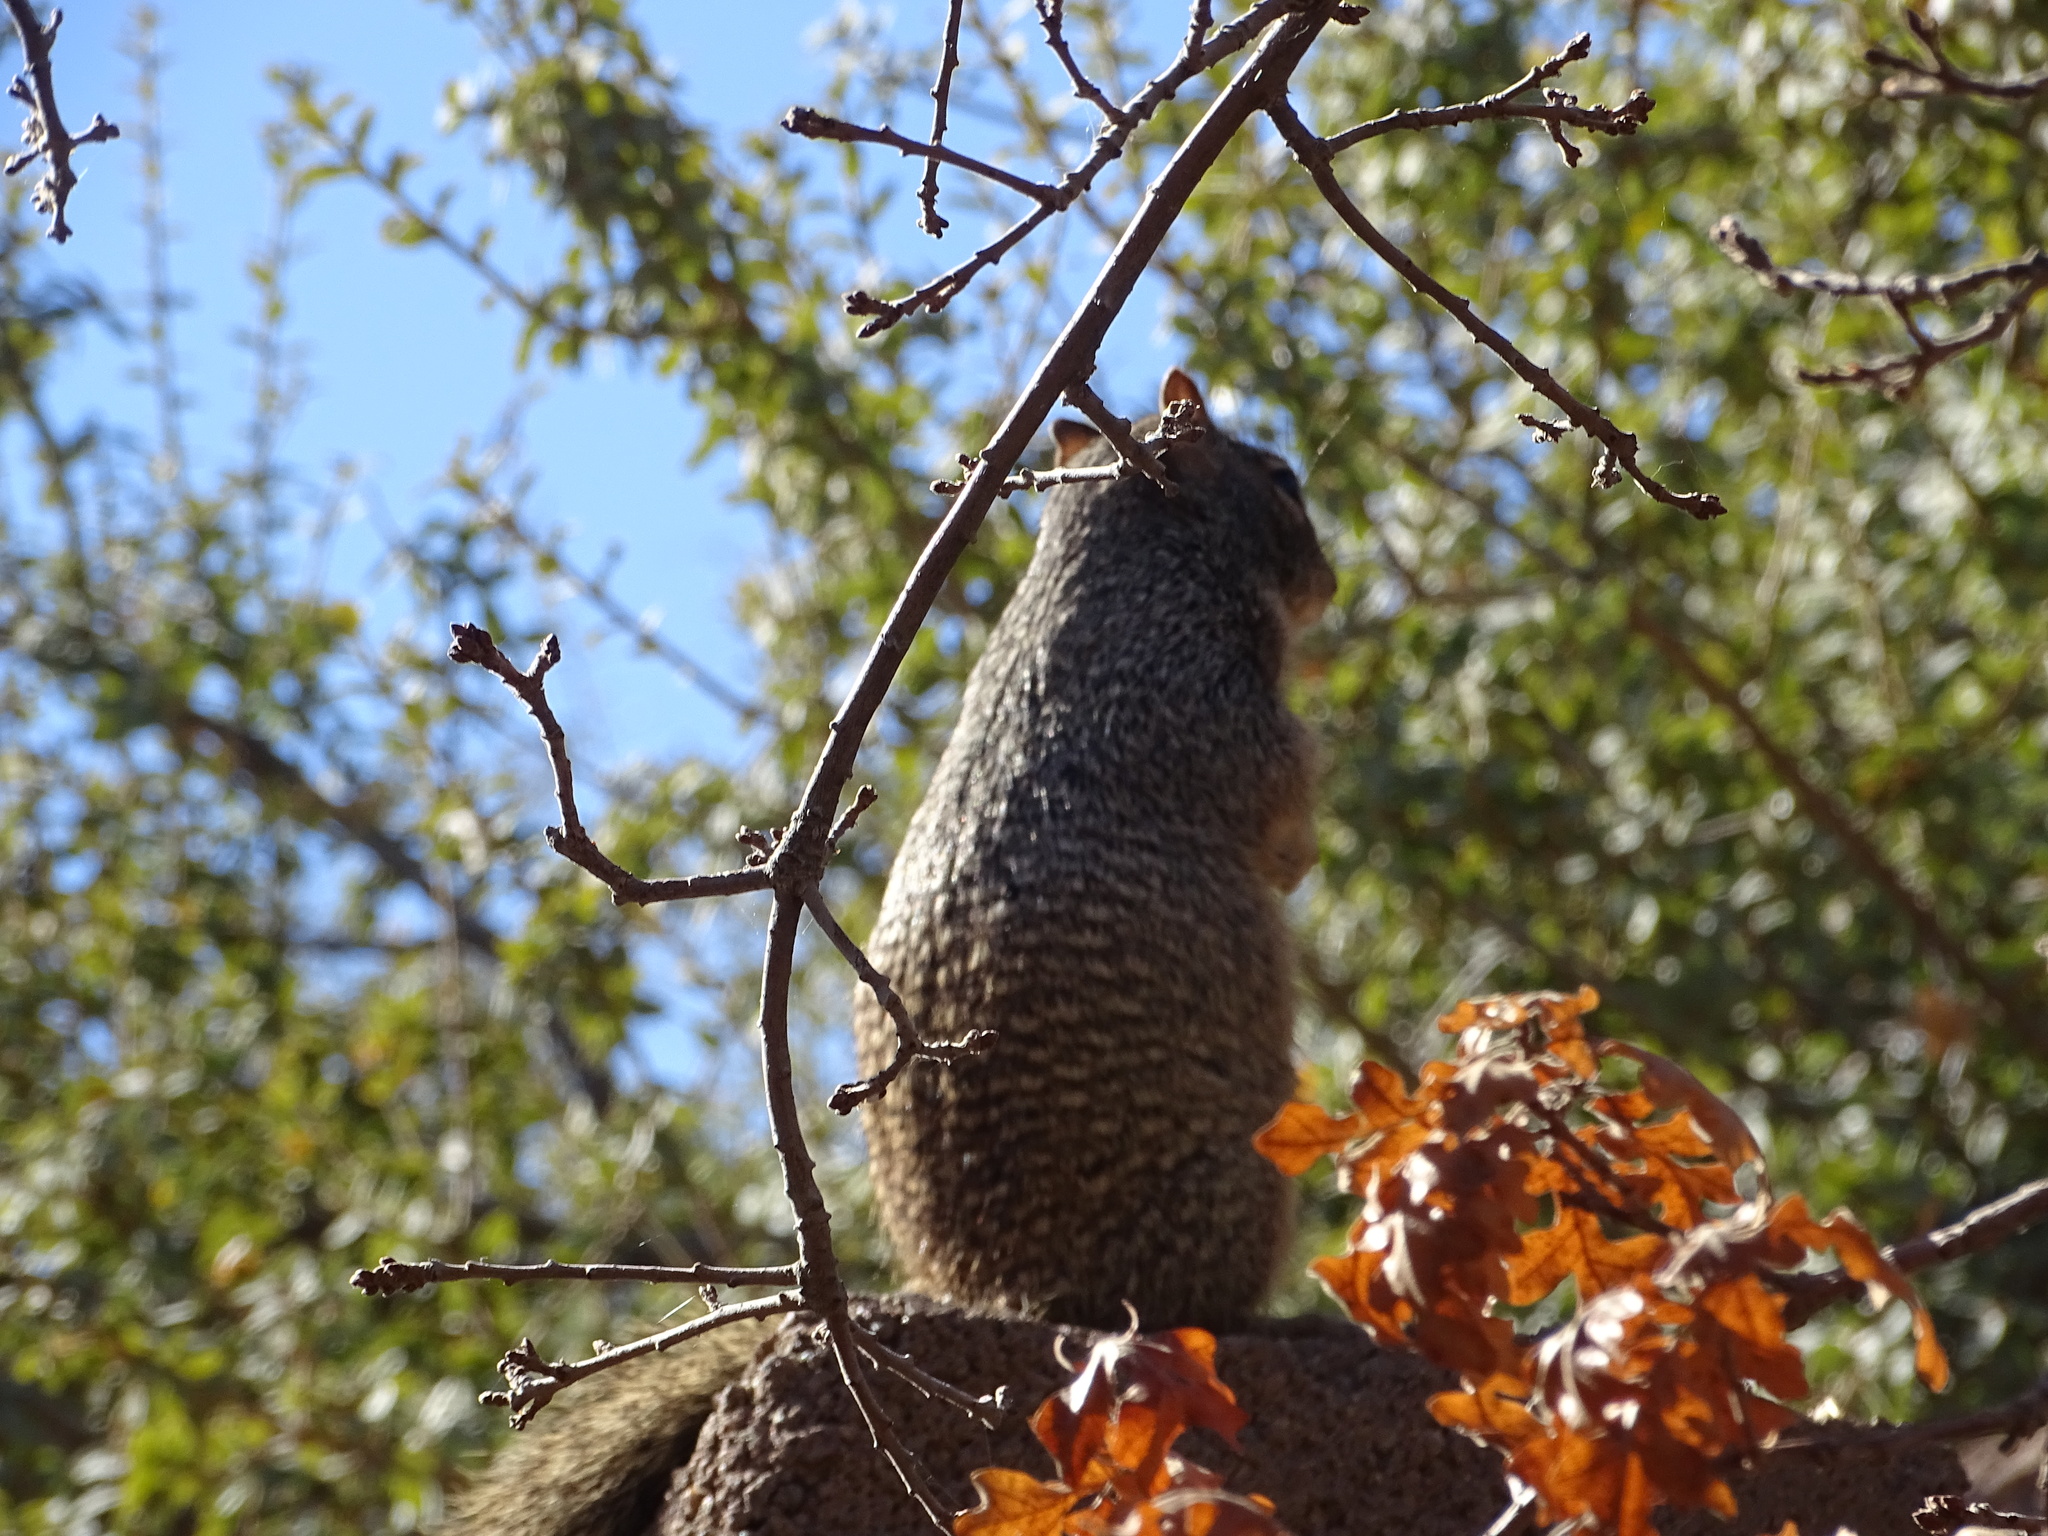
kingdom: Animalia
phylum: Chordata
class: Mammalia
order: Rodentia
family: Sciuridae
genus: Otospermophilus
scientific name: Otospermophilus variegatus
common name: Rock squirrel
